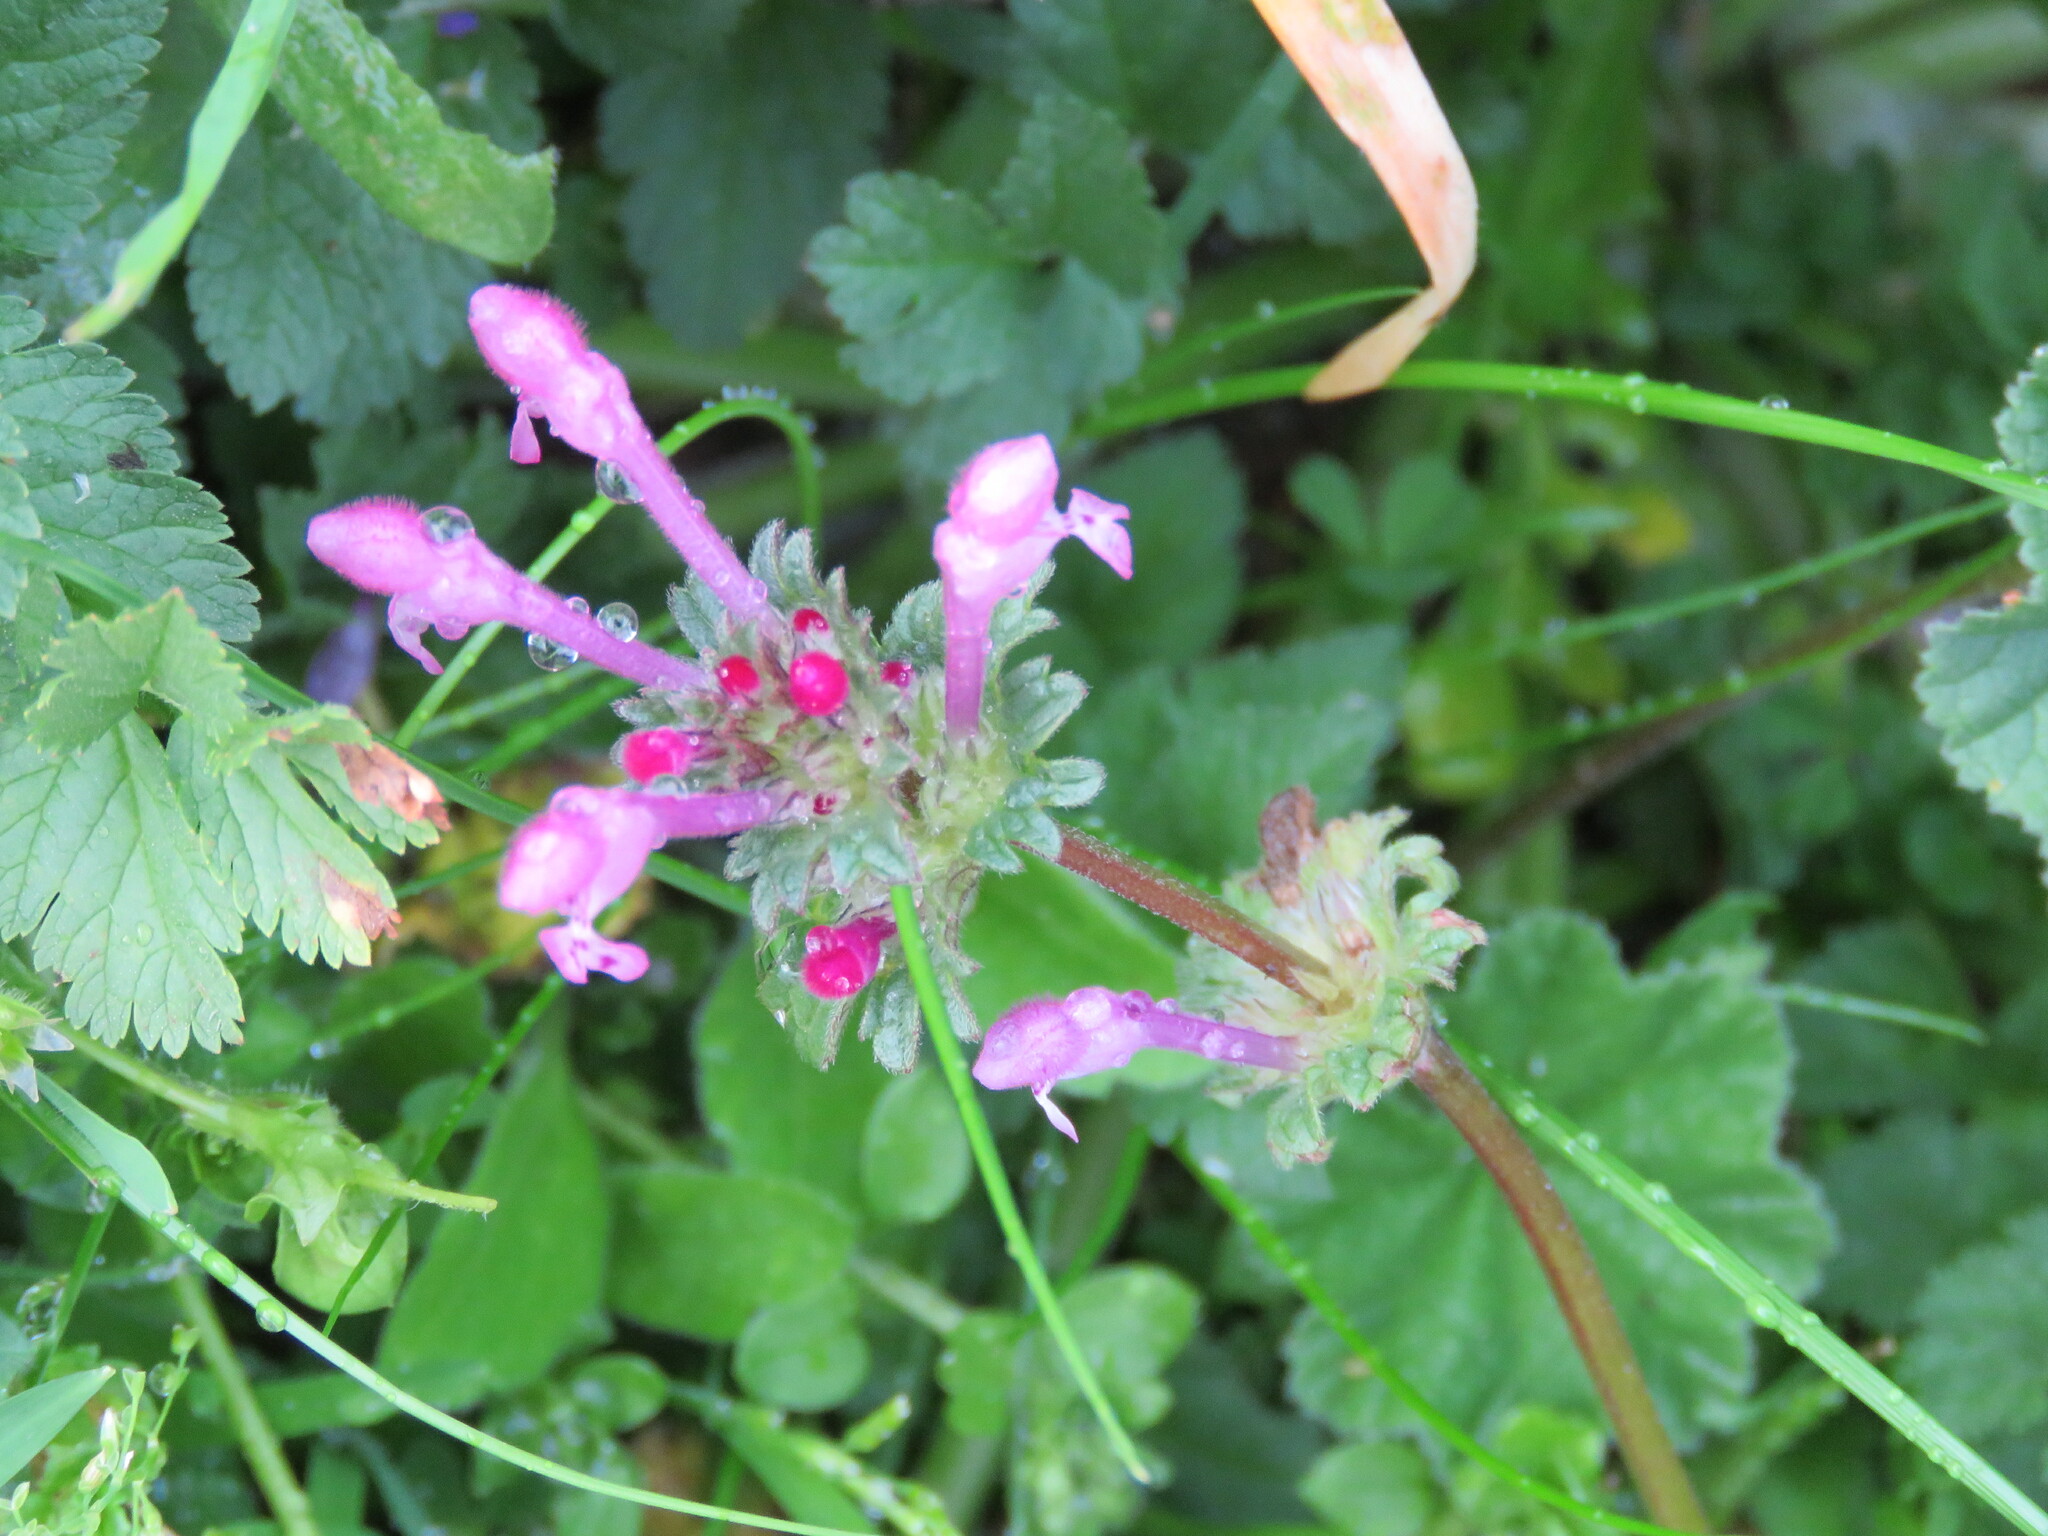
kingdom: Plantae
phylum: Tracheophyta
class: Magnoliopsida
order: Lamiales
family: Lamiaceae
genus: Lamium
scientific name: Lamium amplexicaule
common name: Henbit dead-nettle
